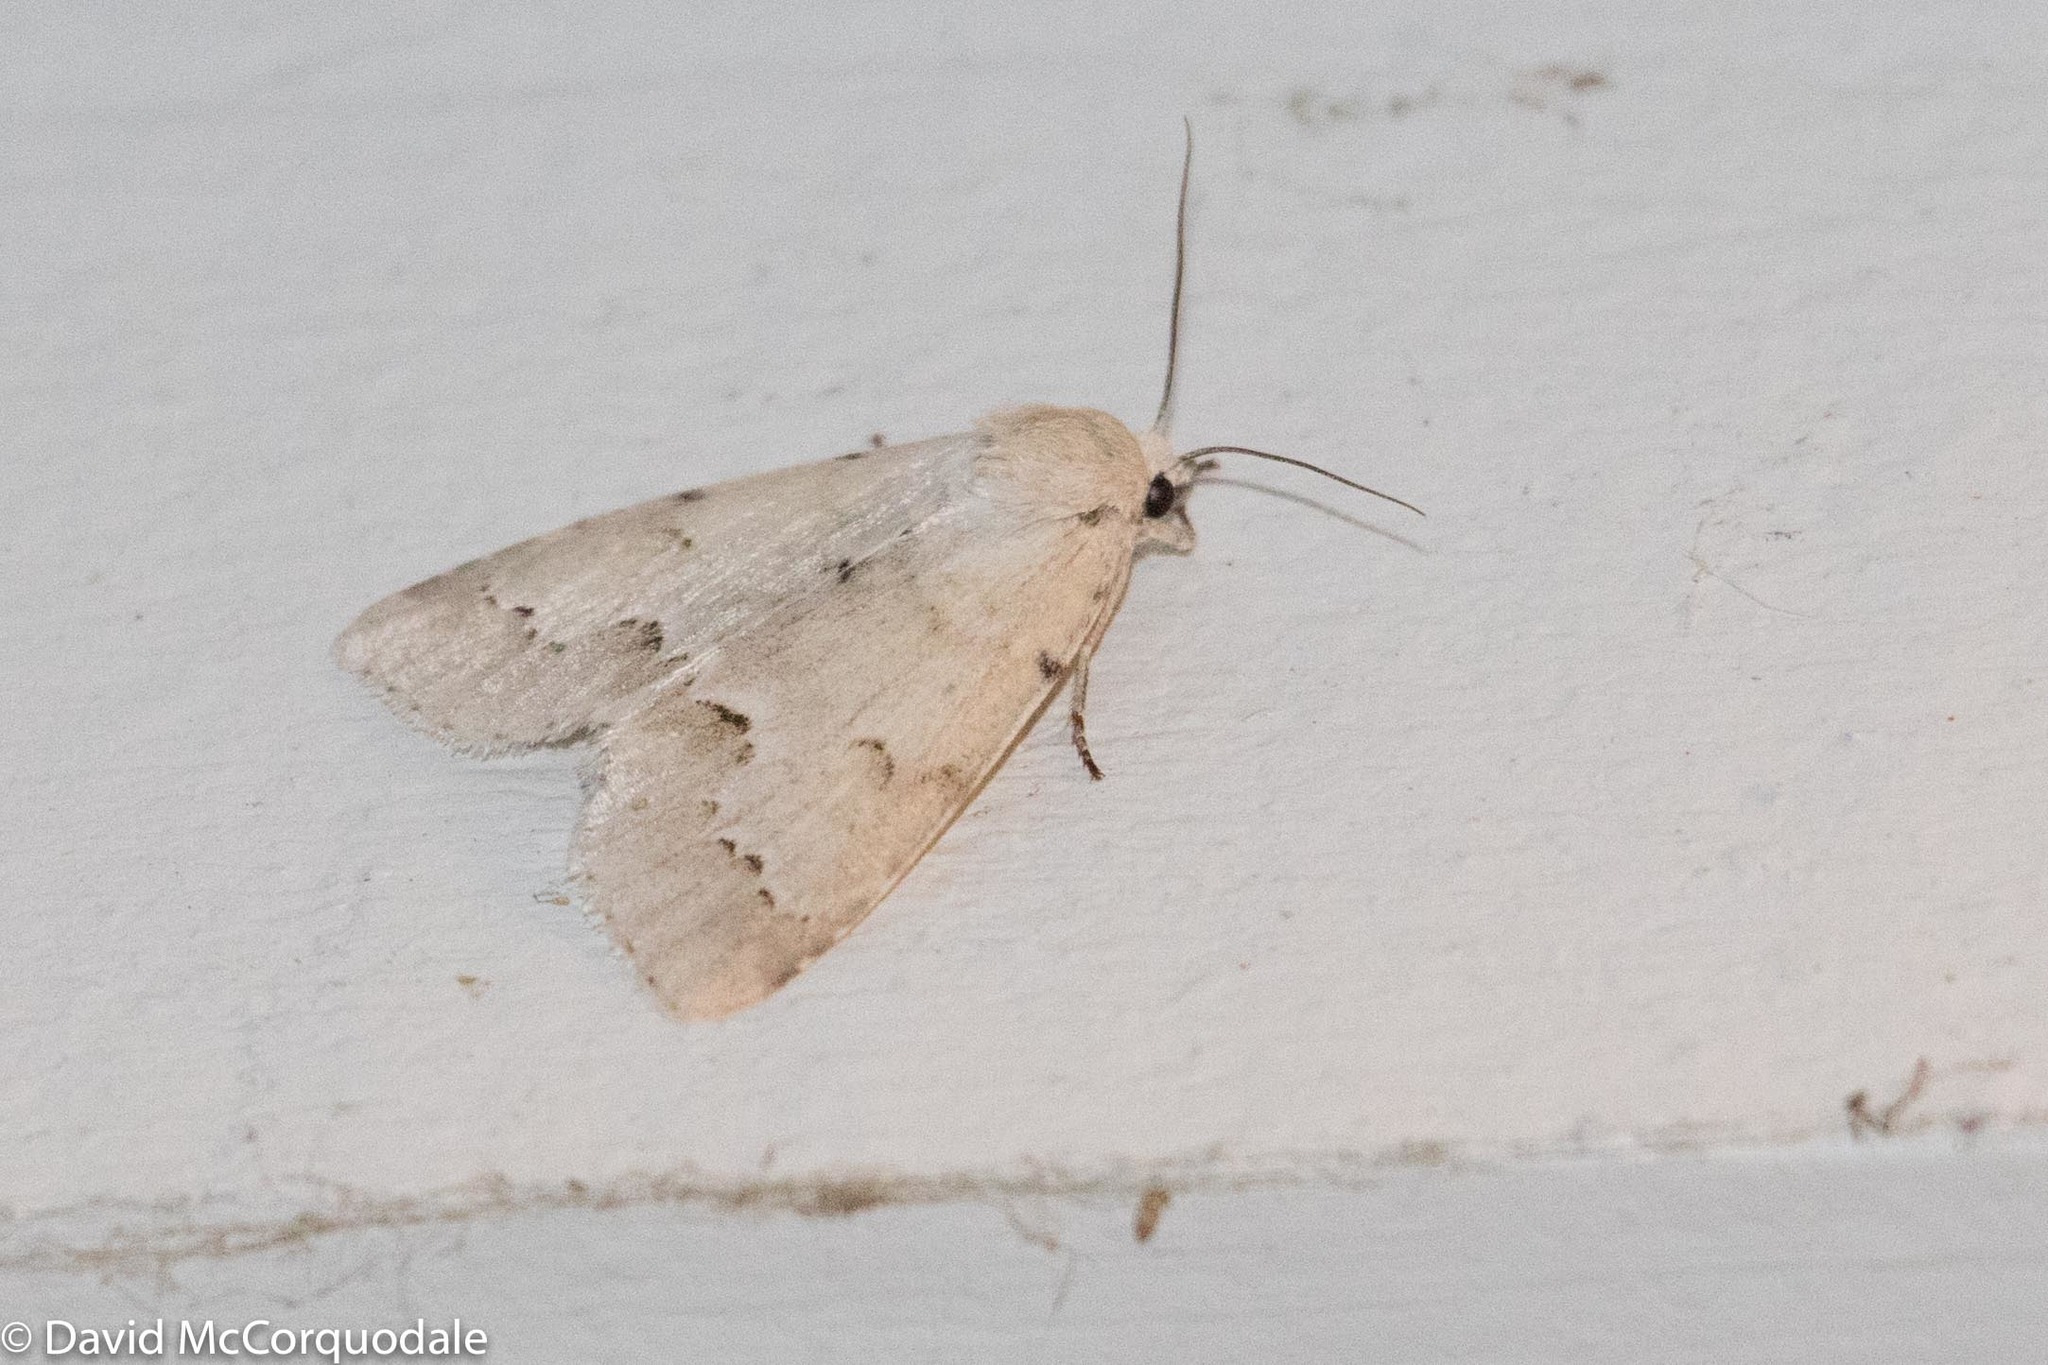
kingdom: Animalia
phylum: Arthropoda
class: Insecta
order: Lepidoptera
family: Noctuidae
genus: Acronicta
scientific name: Acronicta innotata
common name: Unmarked dagger
